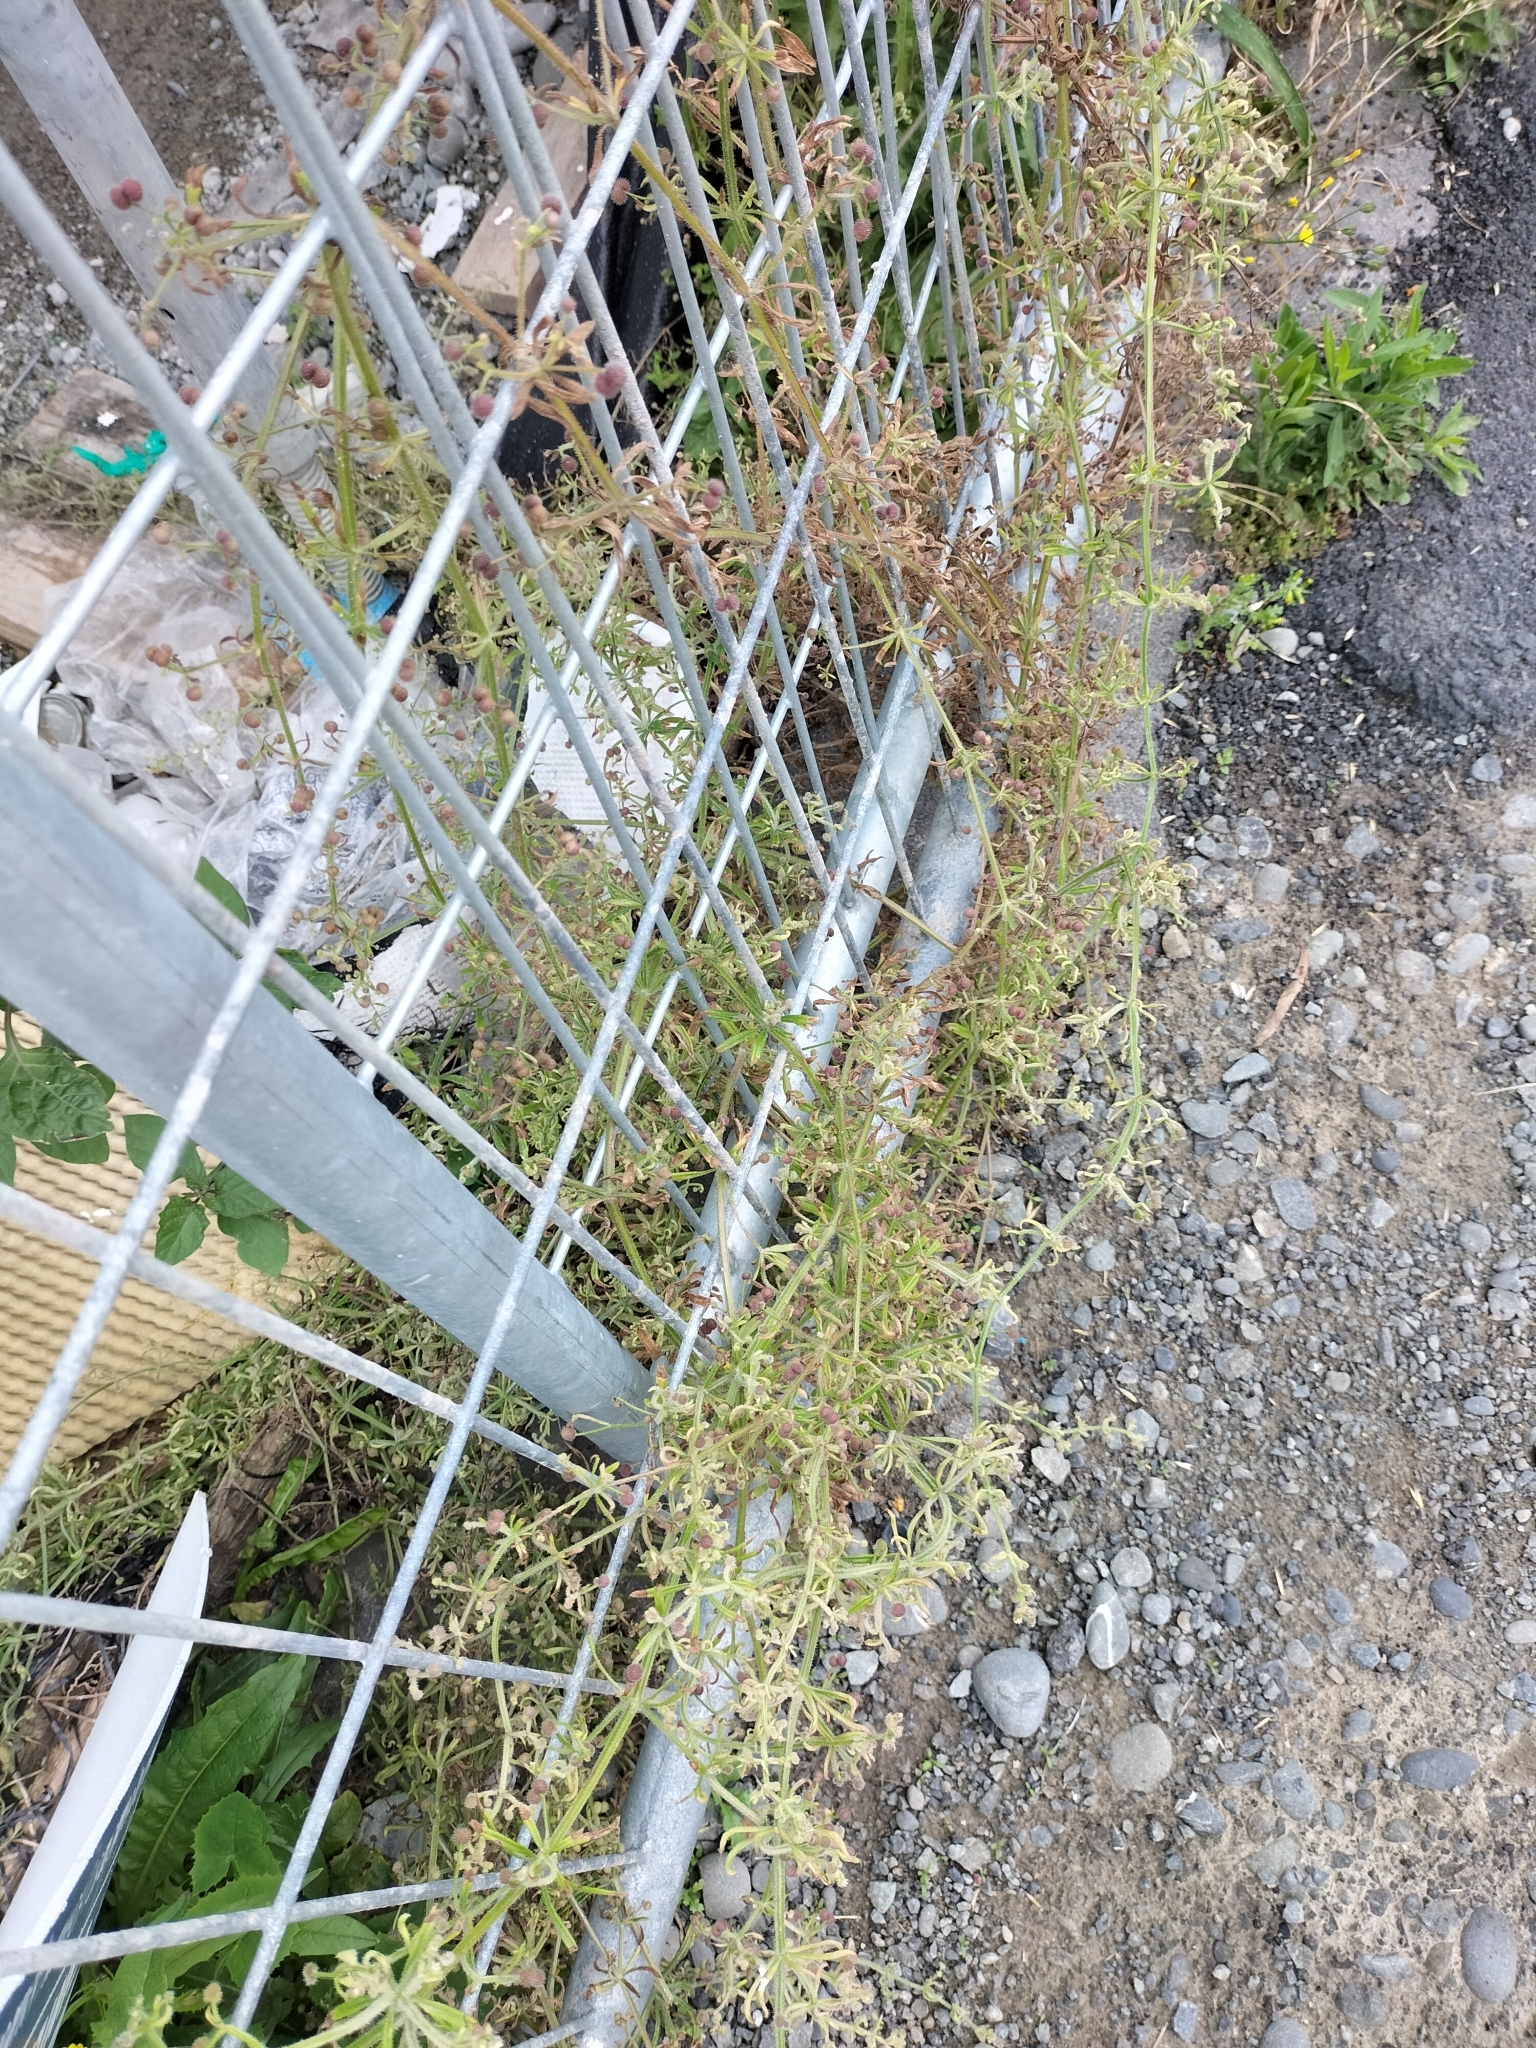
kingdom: Plantae
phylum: Tracheophyta
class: Magnoliopsida
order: Gentianales
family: Rubiaceae
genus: Galium
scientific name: Galium aparine
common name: Cleavers
